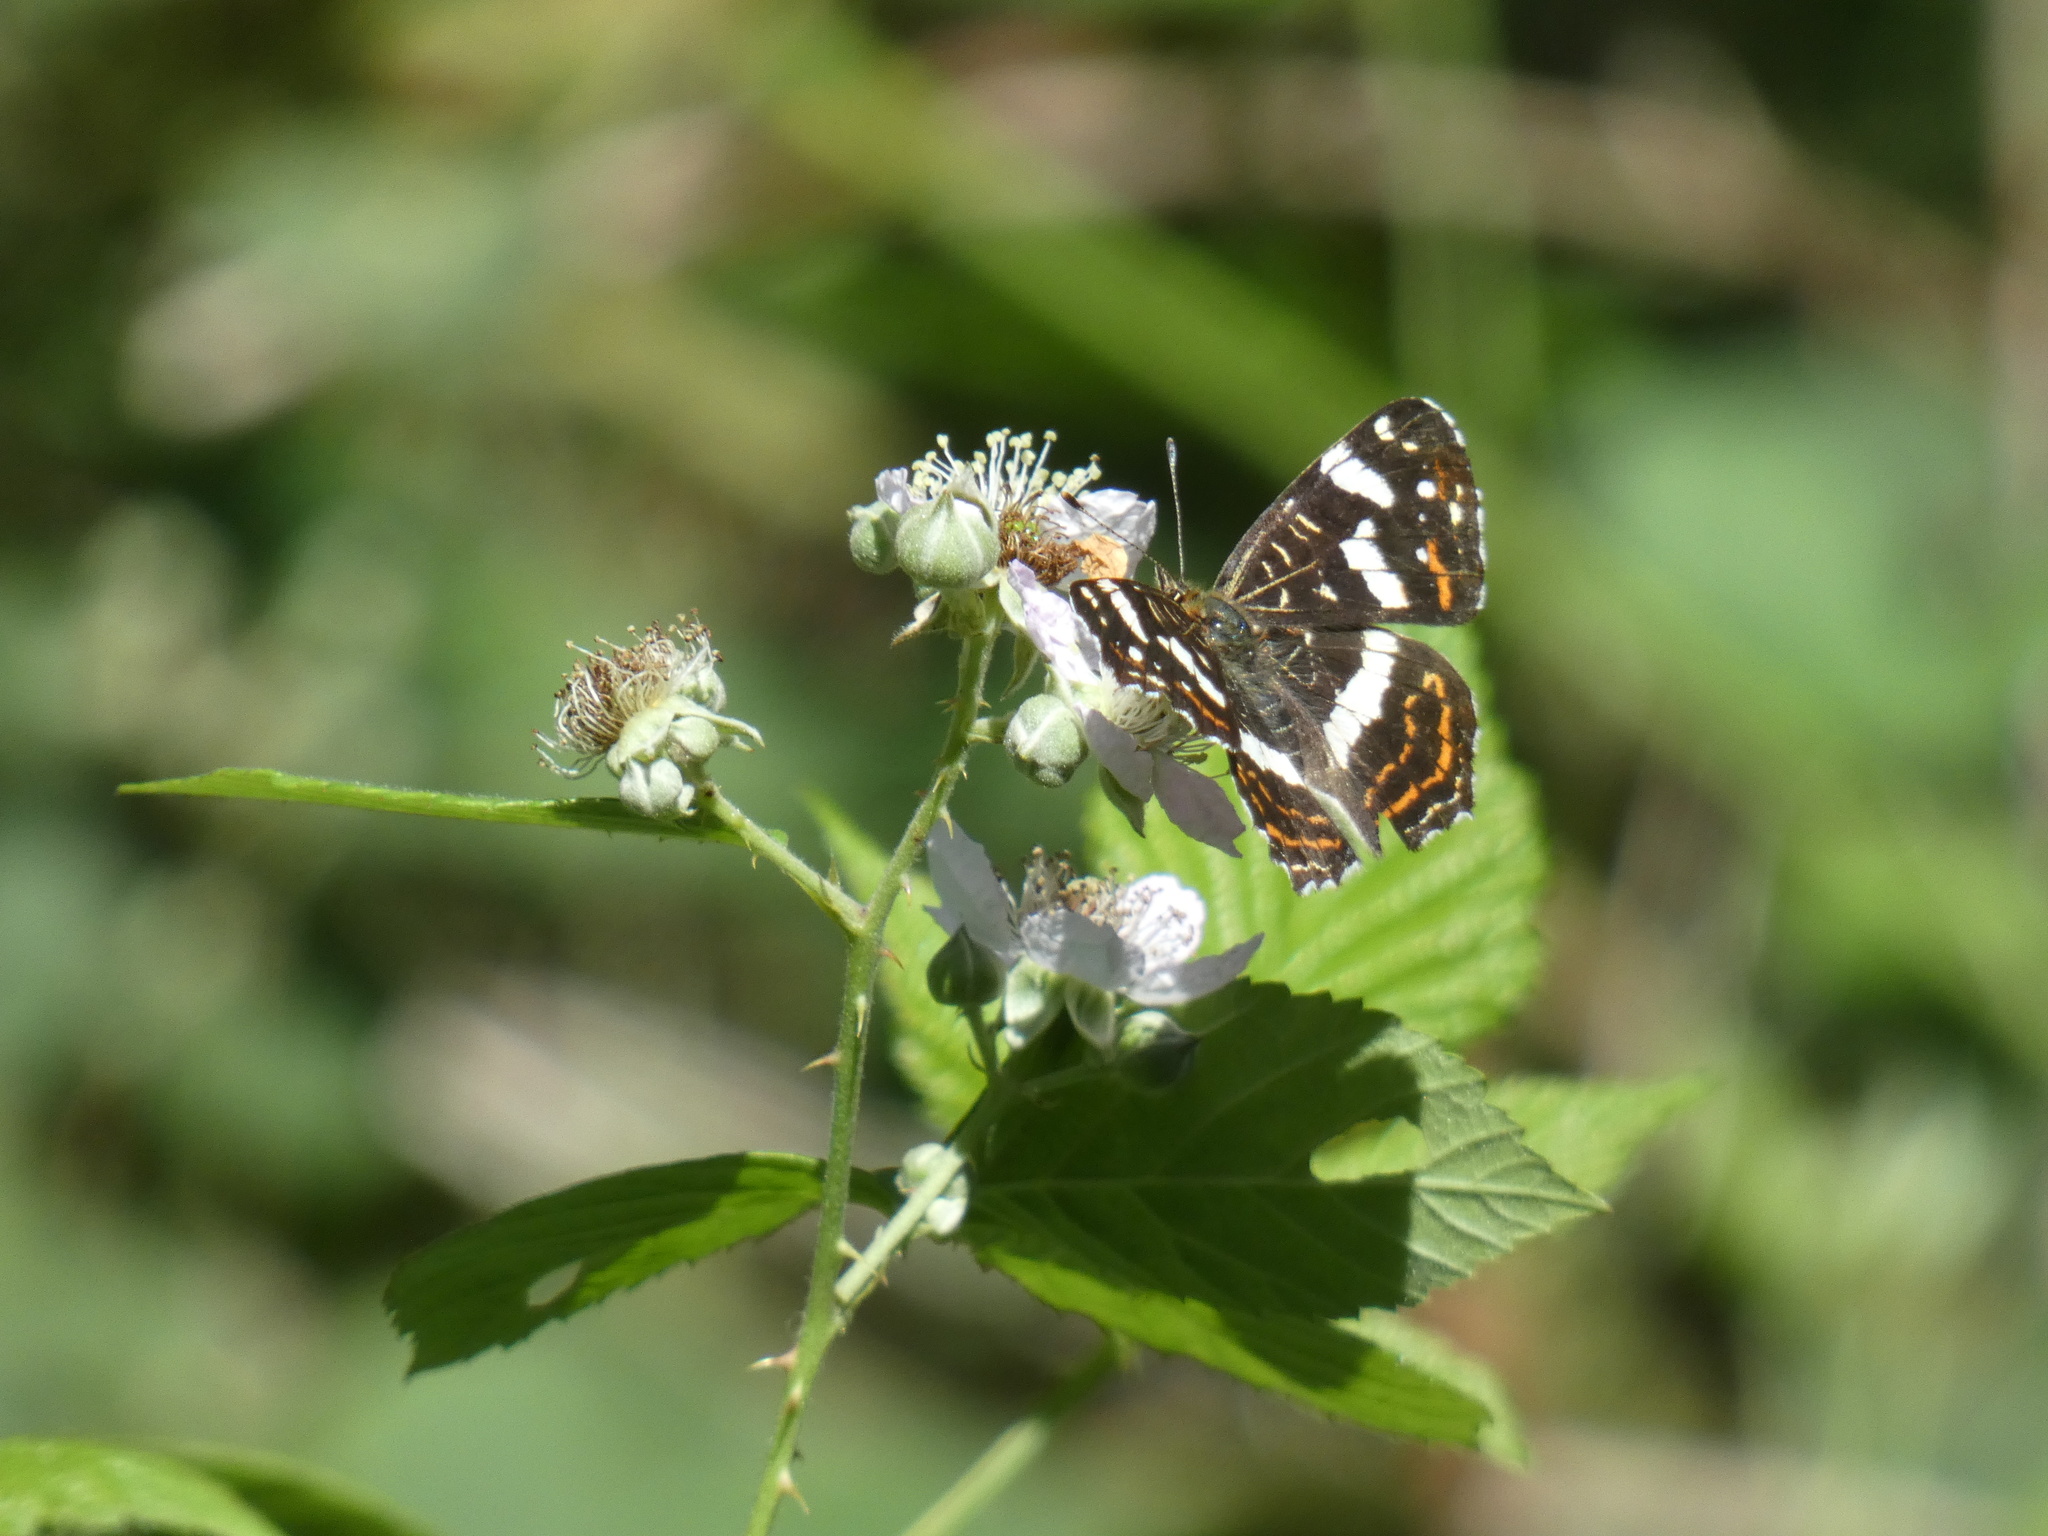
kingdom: Animalia
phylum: Arthropoda
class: Insecta
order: Lepidoptera
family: Nymphalidae
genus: Araschnia
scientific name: Araschnia levana
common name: Map butterfly
